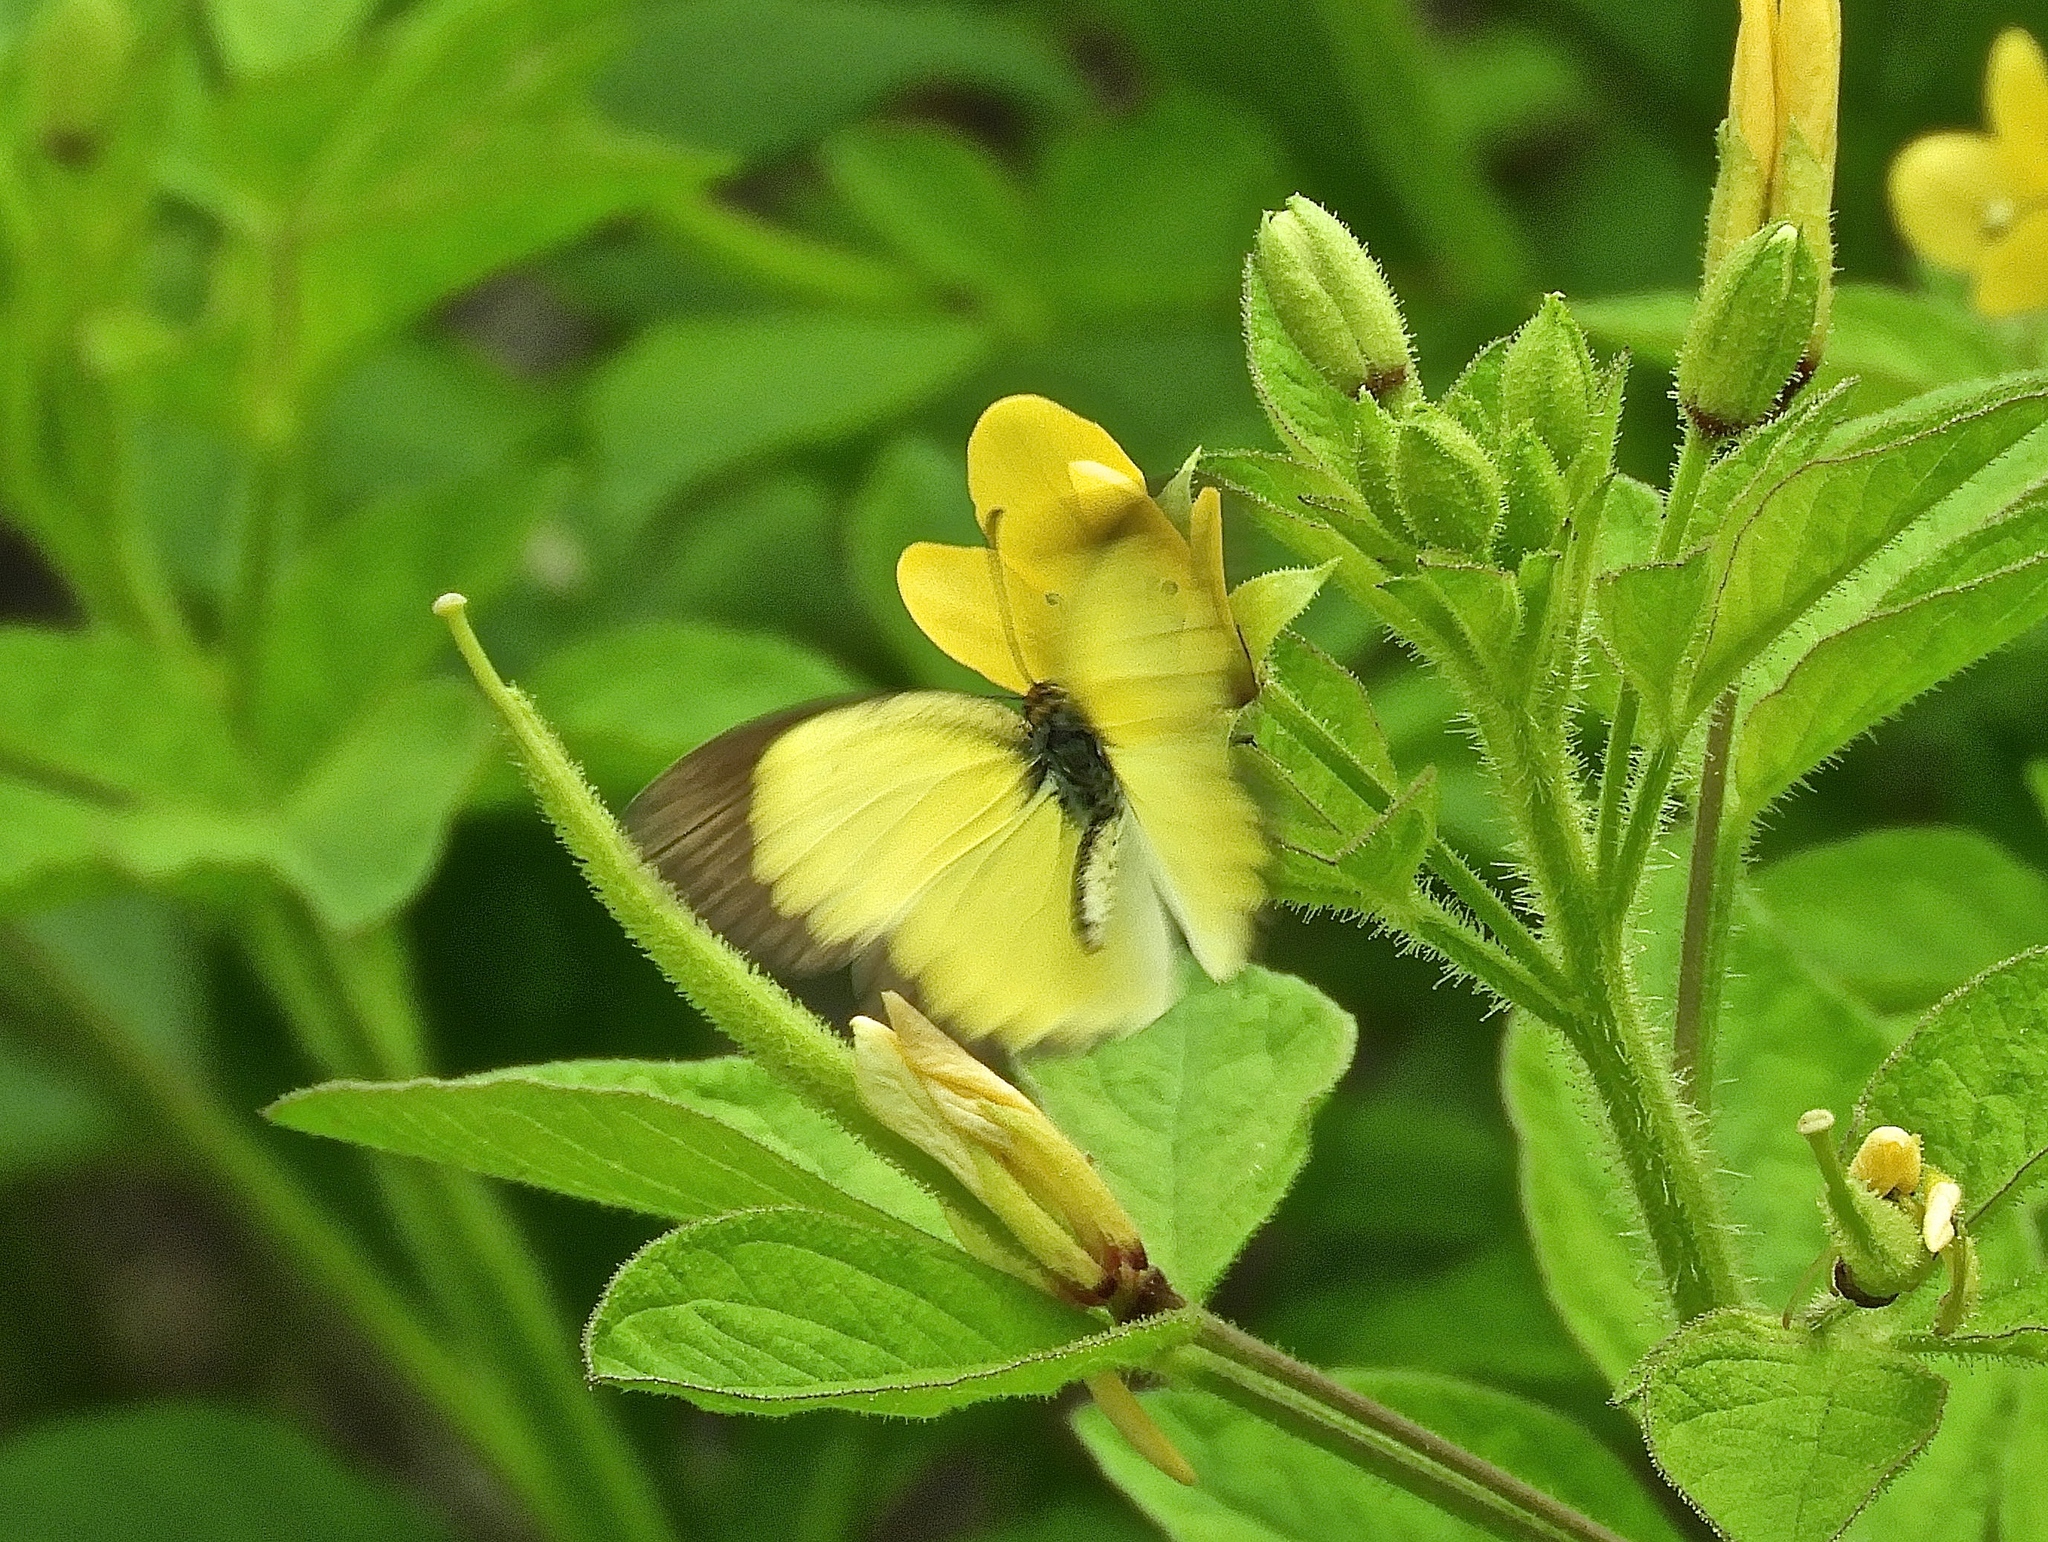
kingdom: Animalia
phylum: Arthropoda
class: Insecta
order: Lepidoptera
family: Pieridae
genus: Pyrisitia
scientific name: Pyrisitia lisa
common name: Little yellow
